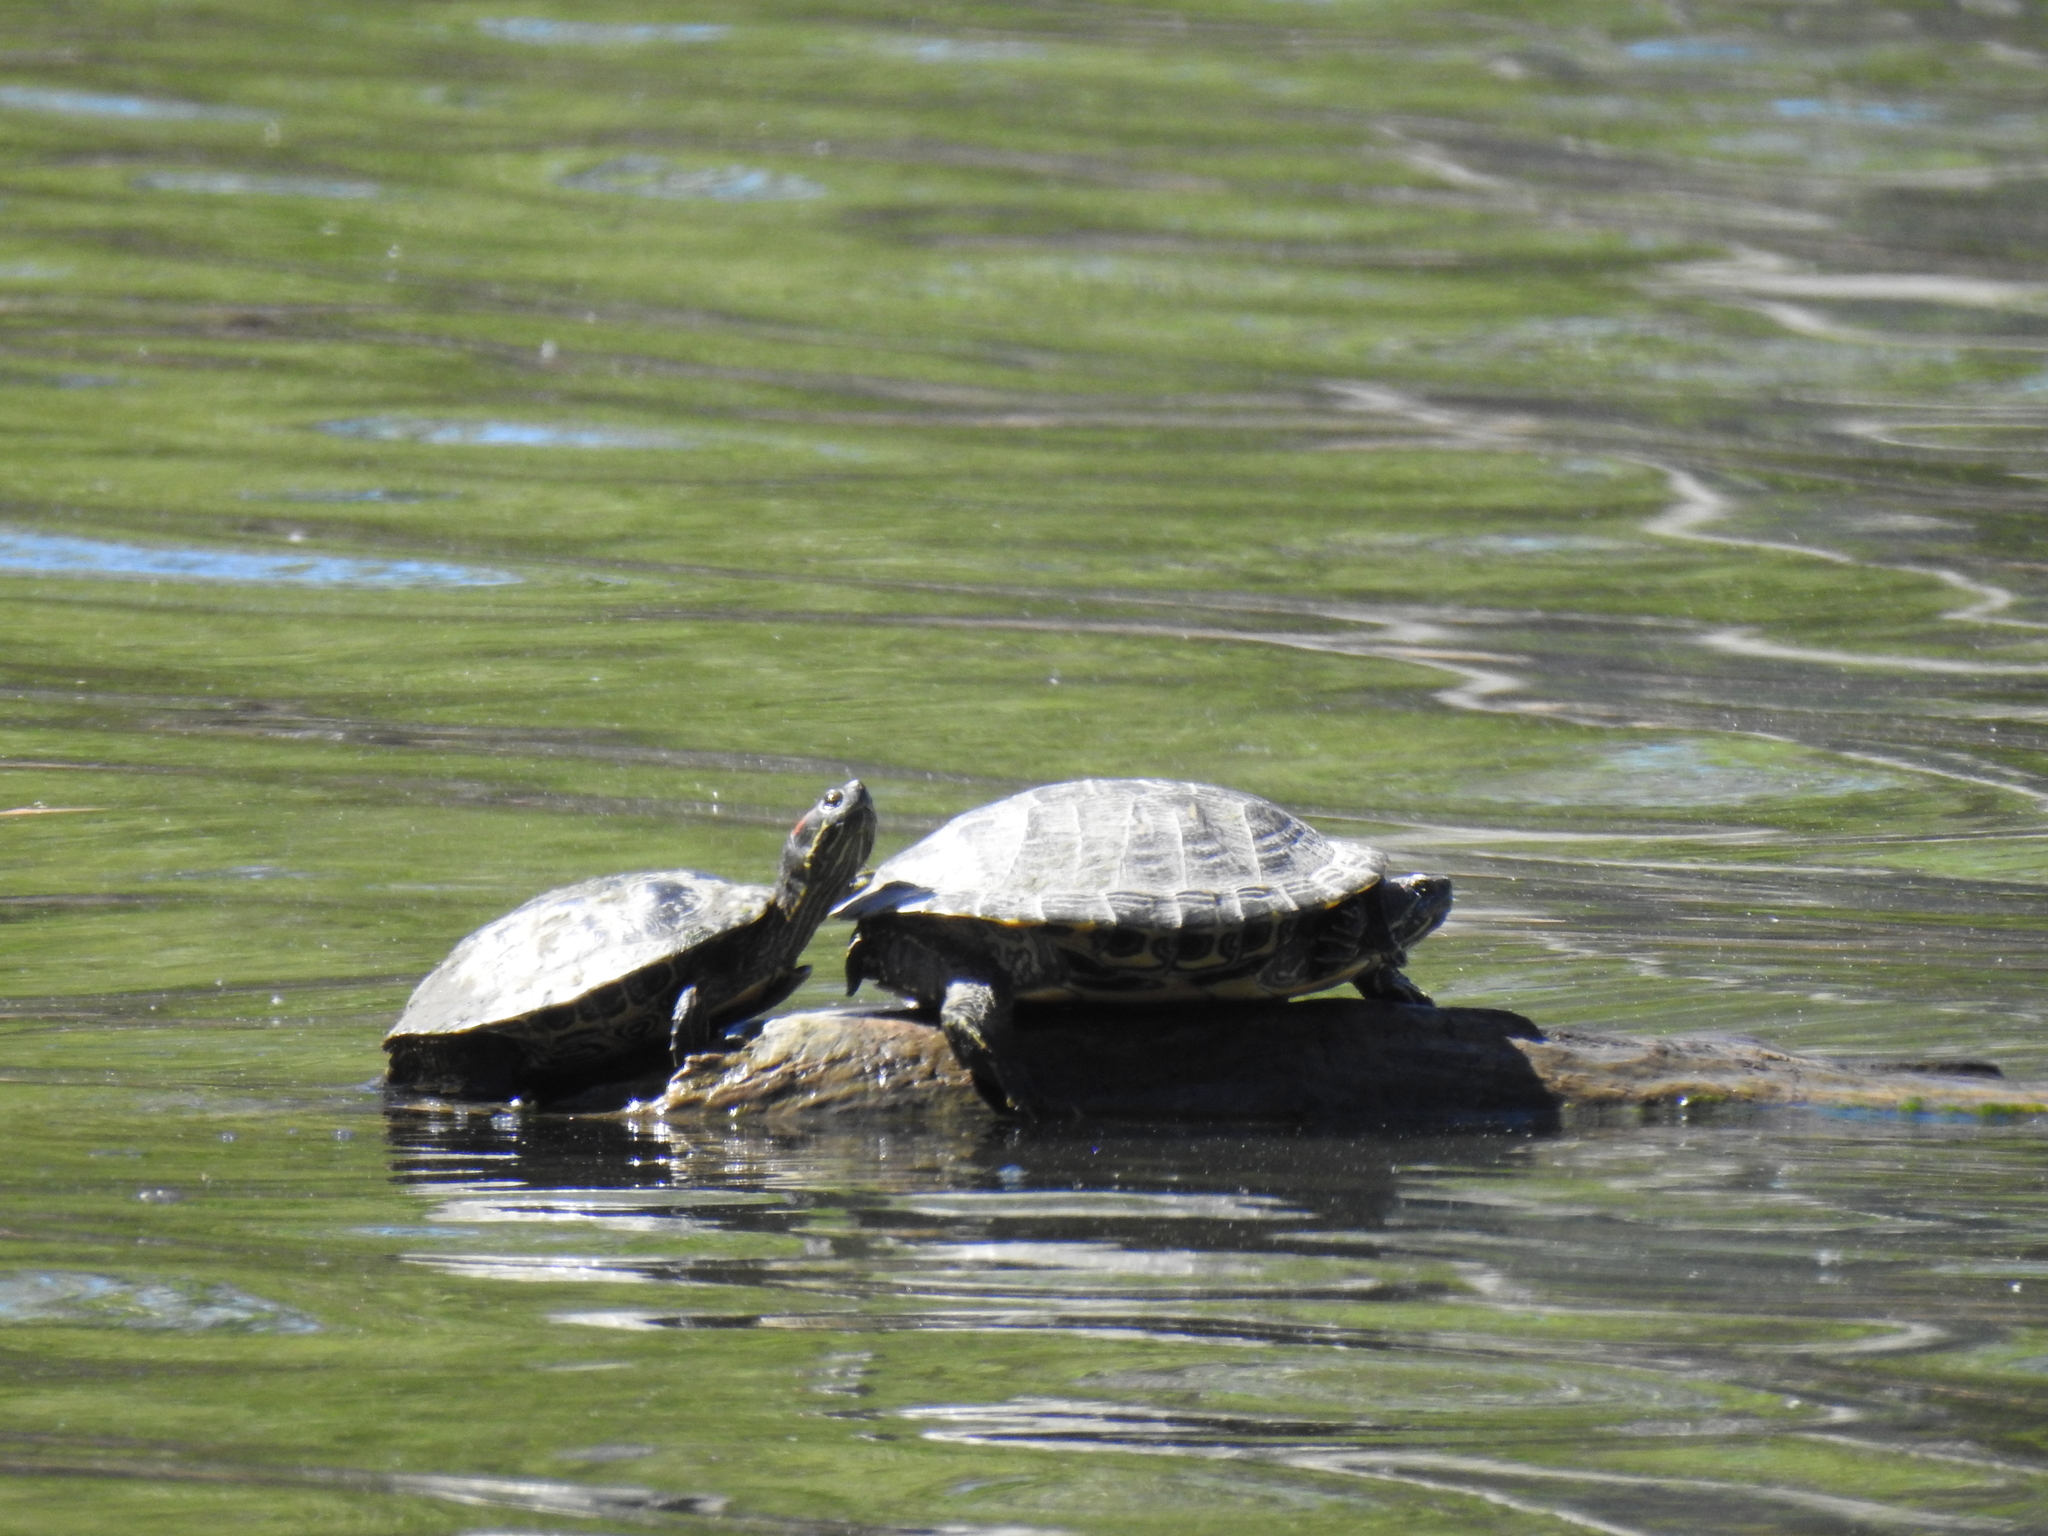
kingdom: Animalia
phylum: Chordata
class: Testudines
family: Emydidae
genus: Trachemys
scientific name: Trachemys scripta
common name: Slider
